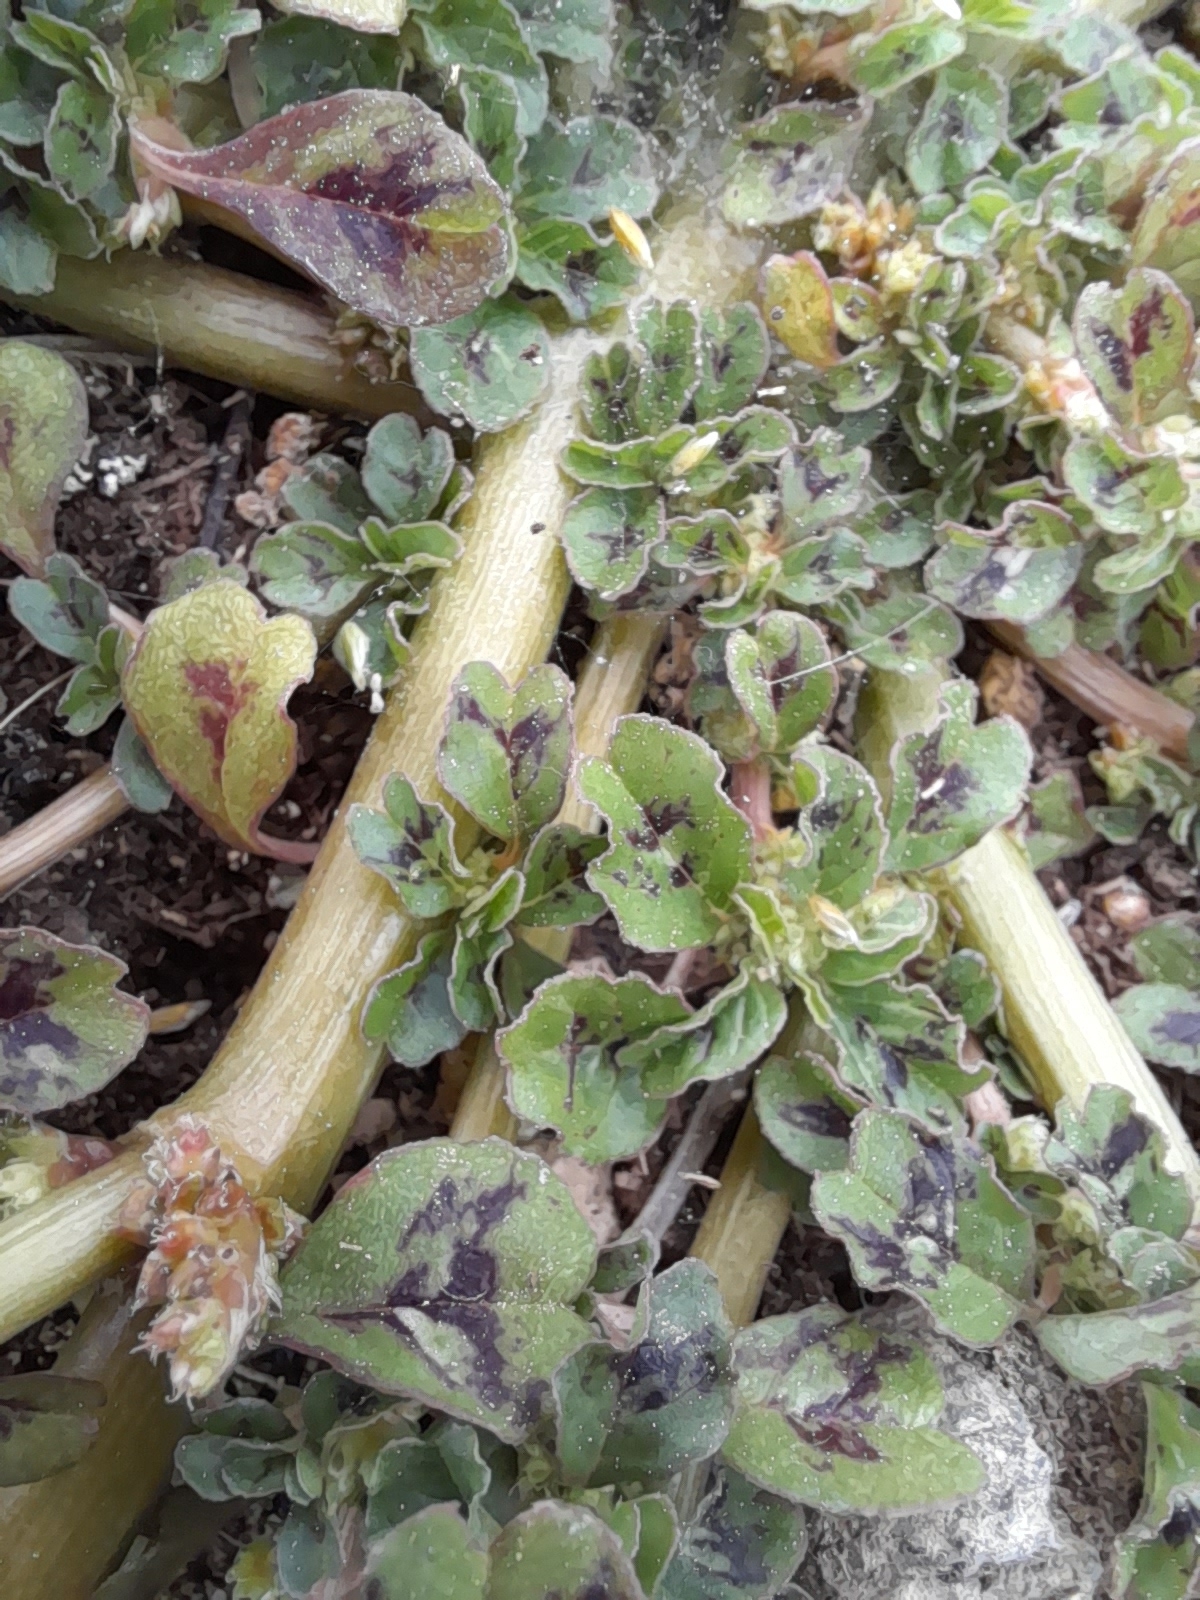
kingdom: Plantae
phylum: Tracheophyta
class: Magnoliopsida
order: Caryophyllales
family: Amaranthaceae
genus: Amaranthus
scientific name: Amaranthus blitum
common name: Purple amaranth
